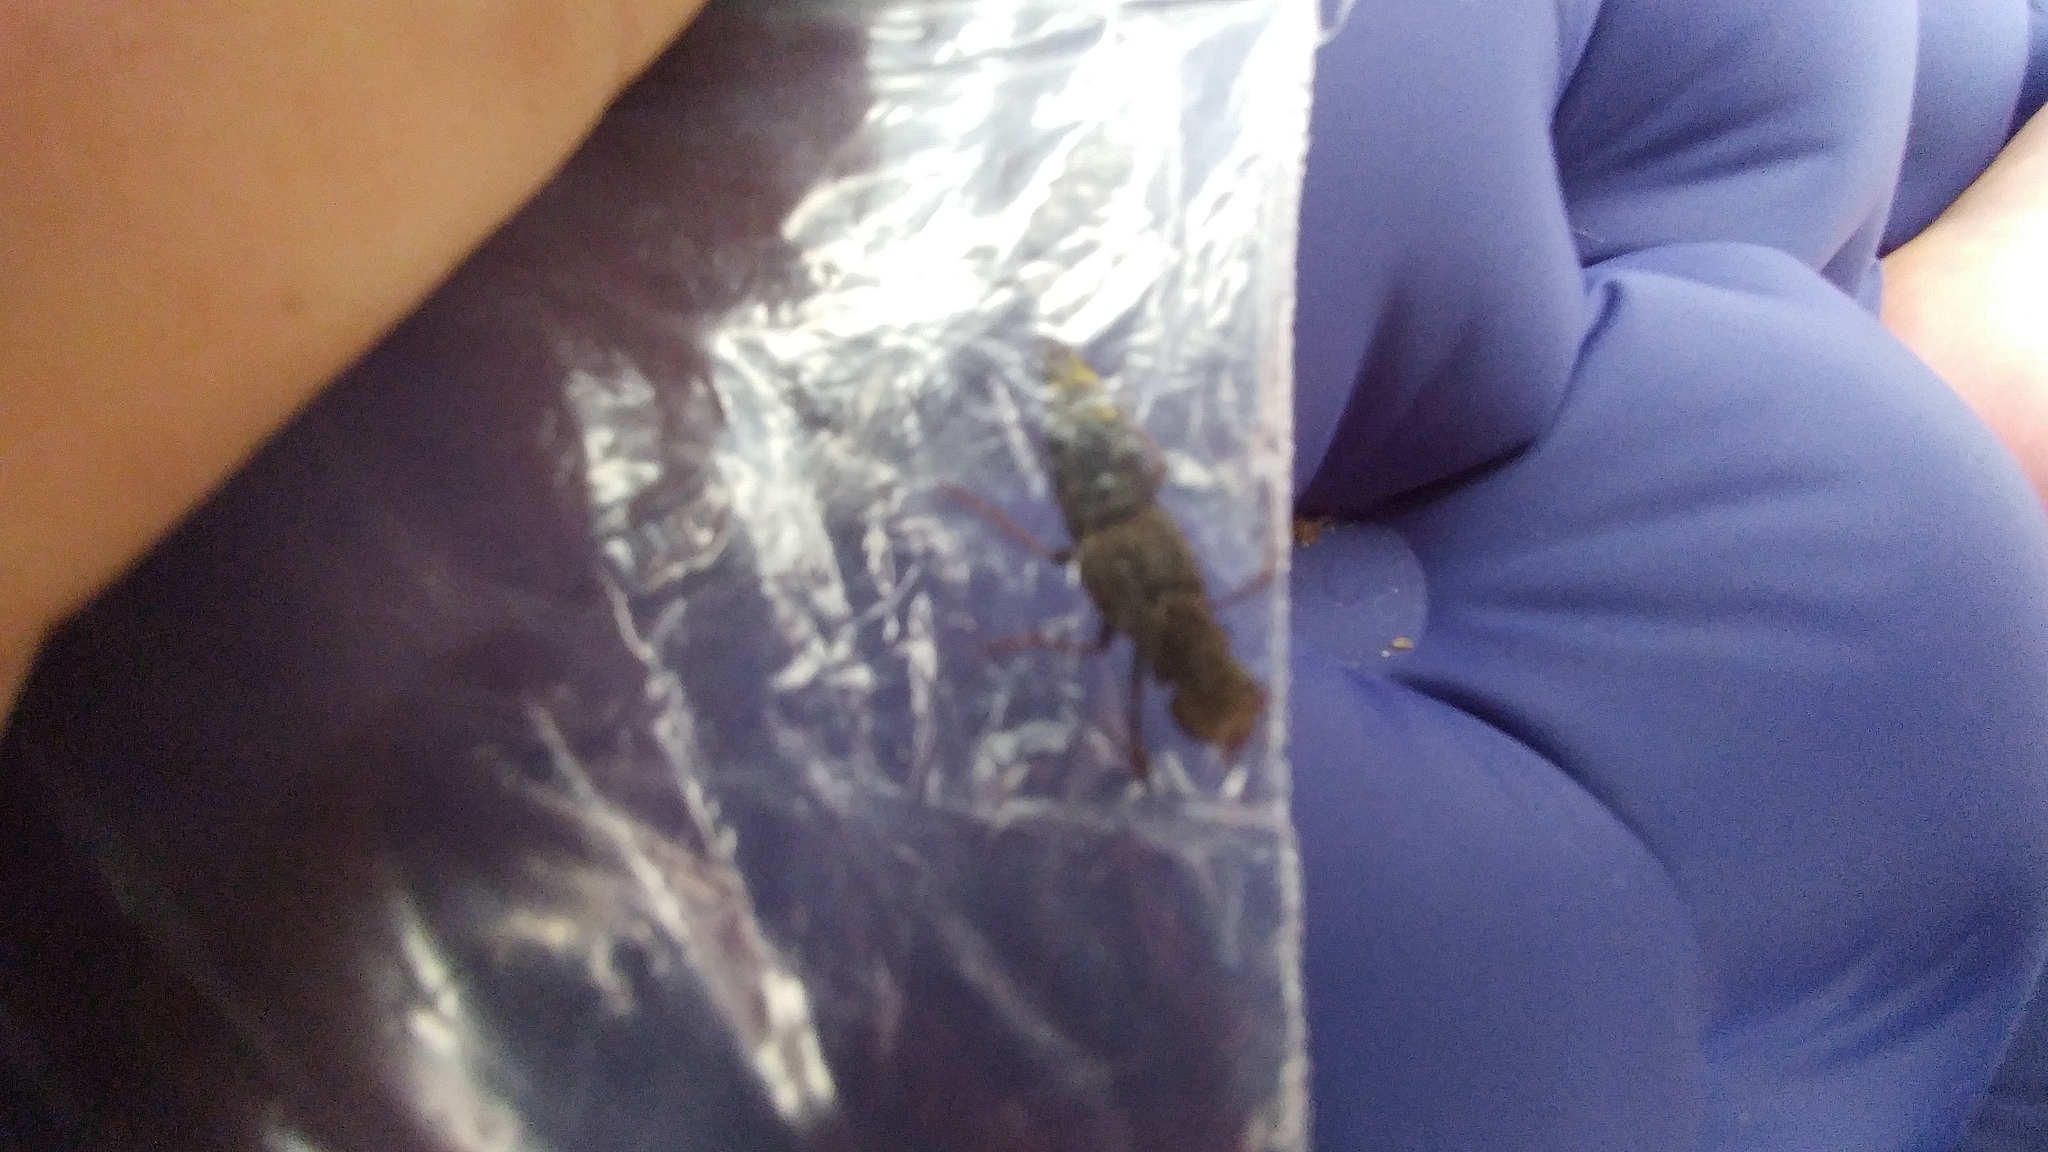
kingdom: Animalia
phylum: Arthropoda
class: Insecta
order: Coleoptera
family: Staphylinidae
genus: Ontholestes
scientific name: Ontholestes cingulatus
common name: Gold-and-brown rove beetle
